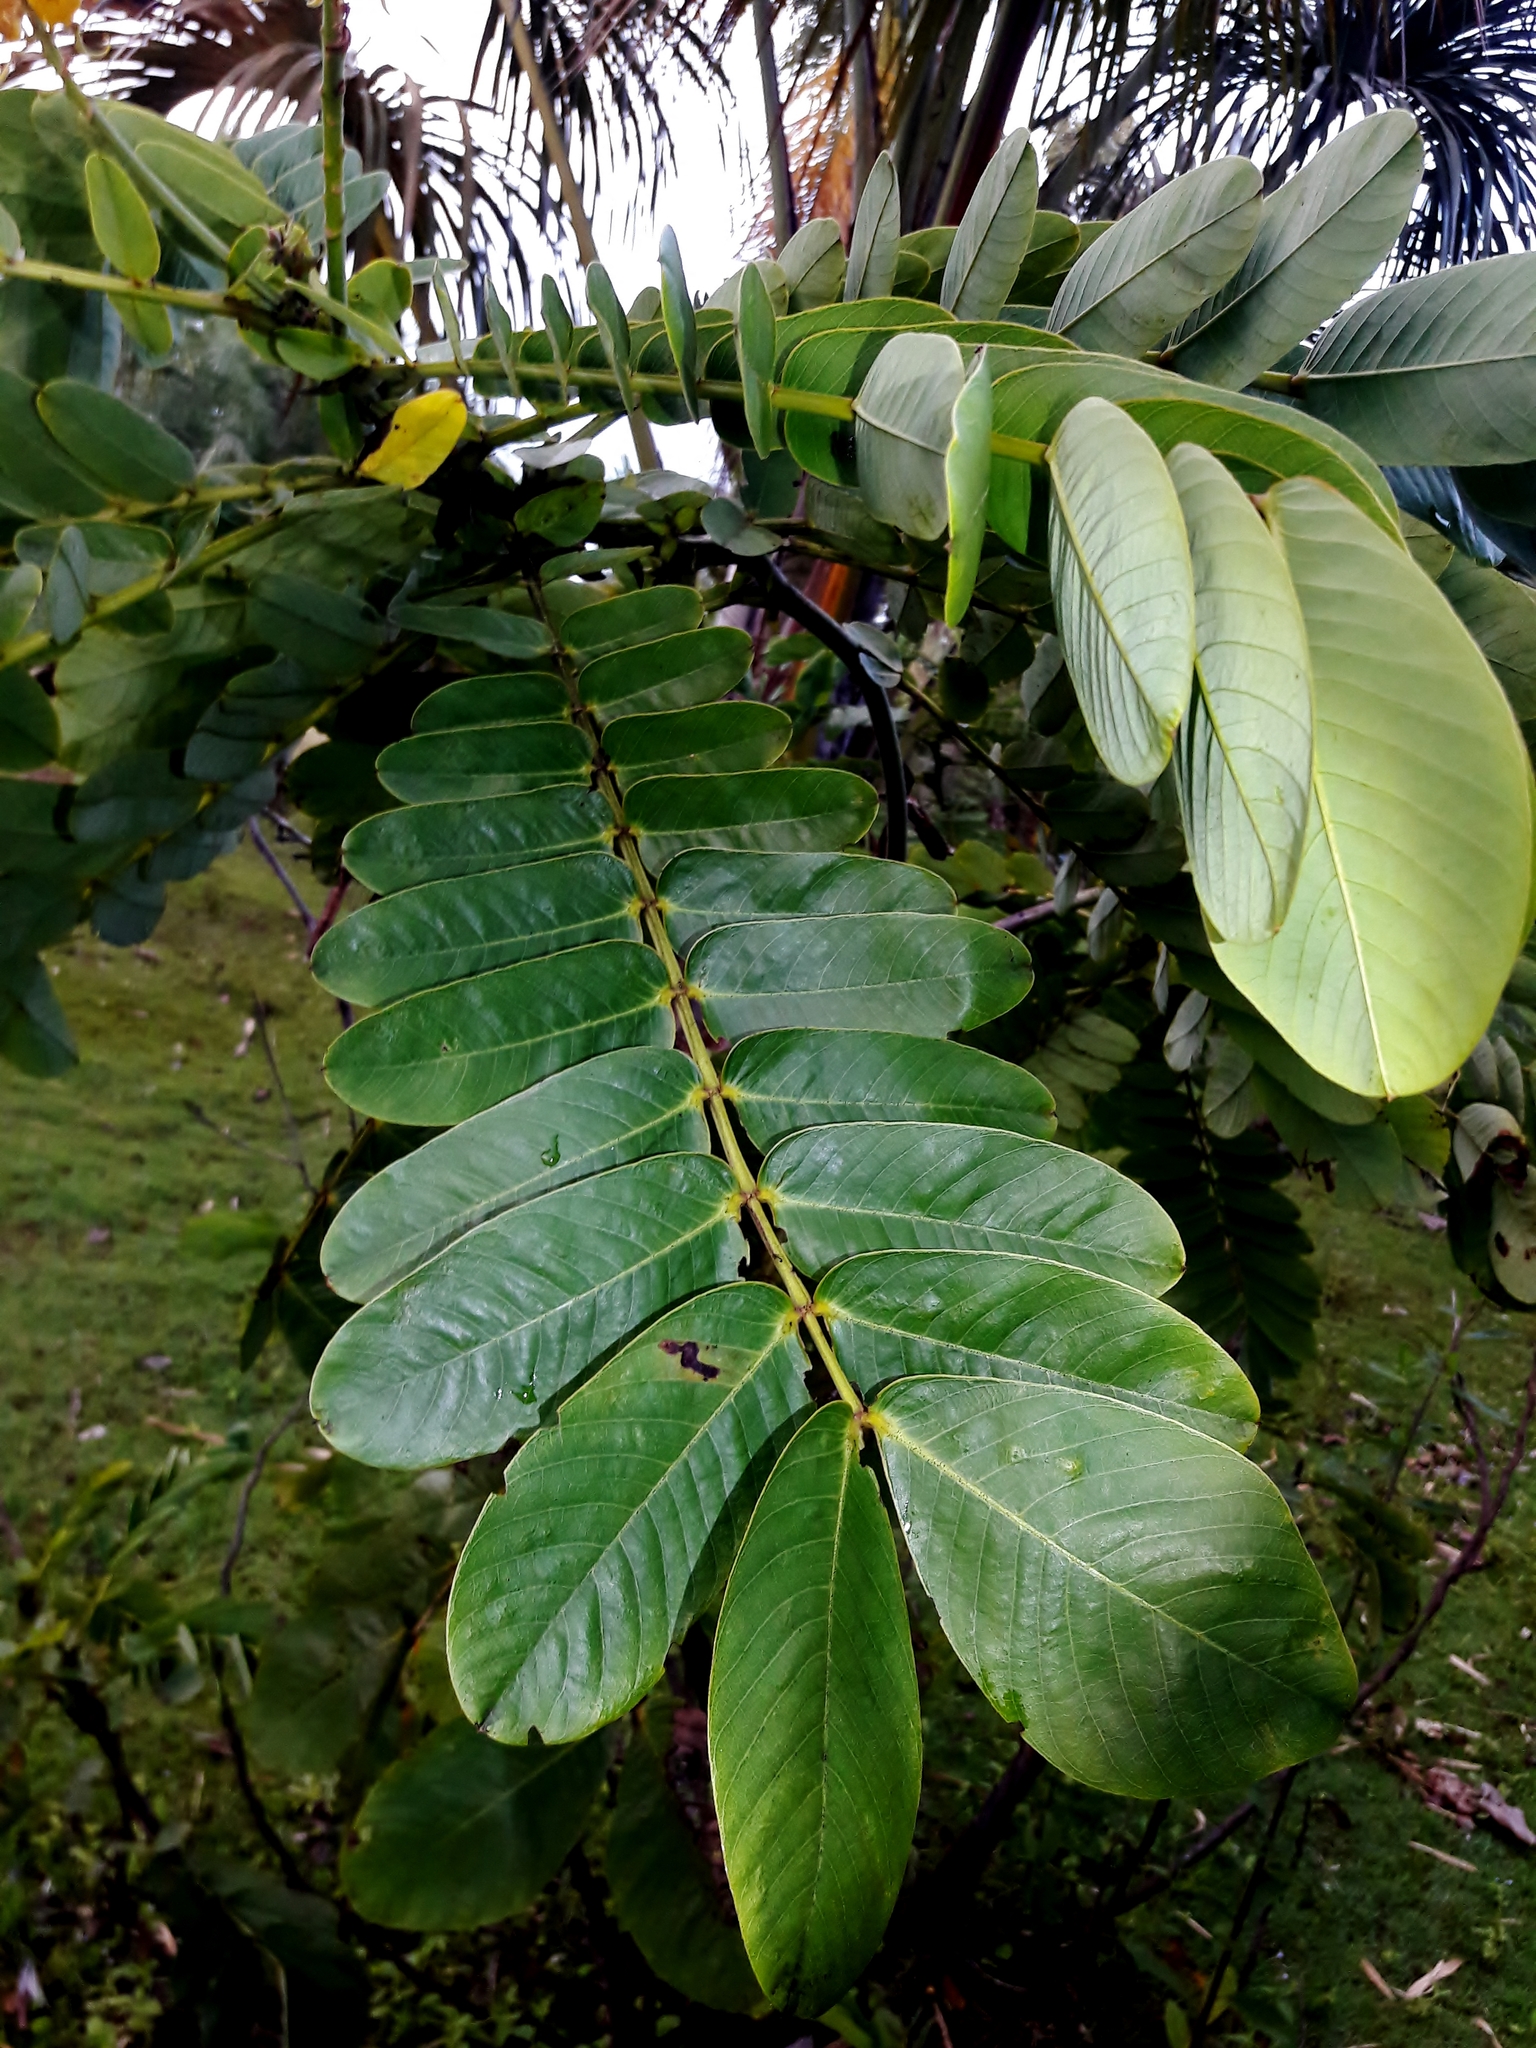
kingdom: Plantae
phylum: Tracheophyta
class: Magnoliopsida
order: Fabales
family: Fabaceae
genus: Senna
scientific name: Senna alata
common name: Emperor's candlesticks
